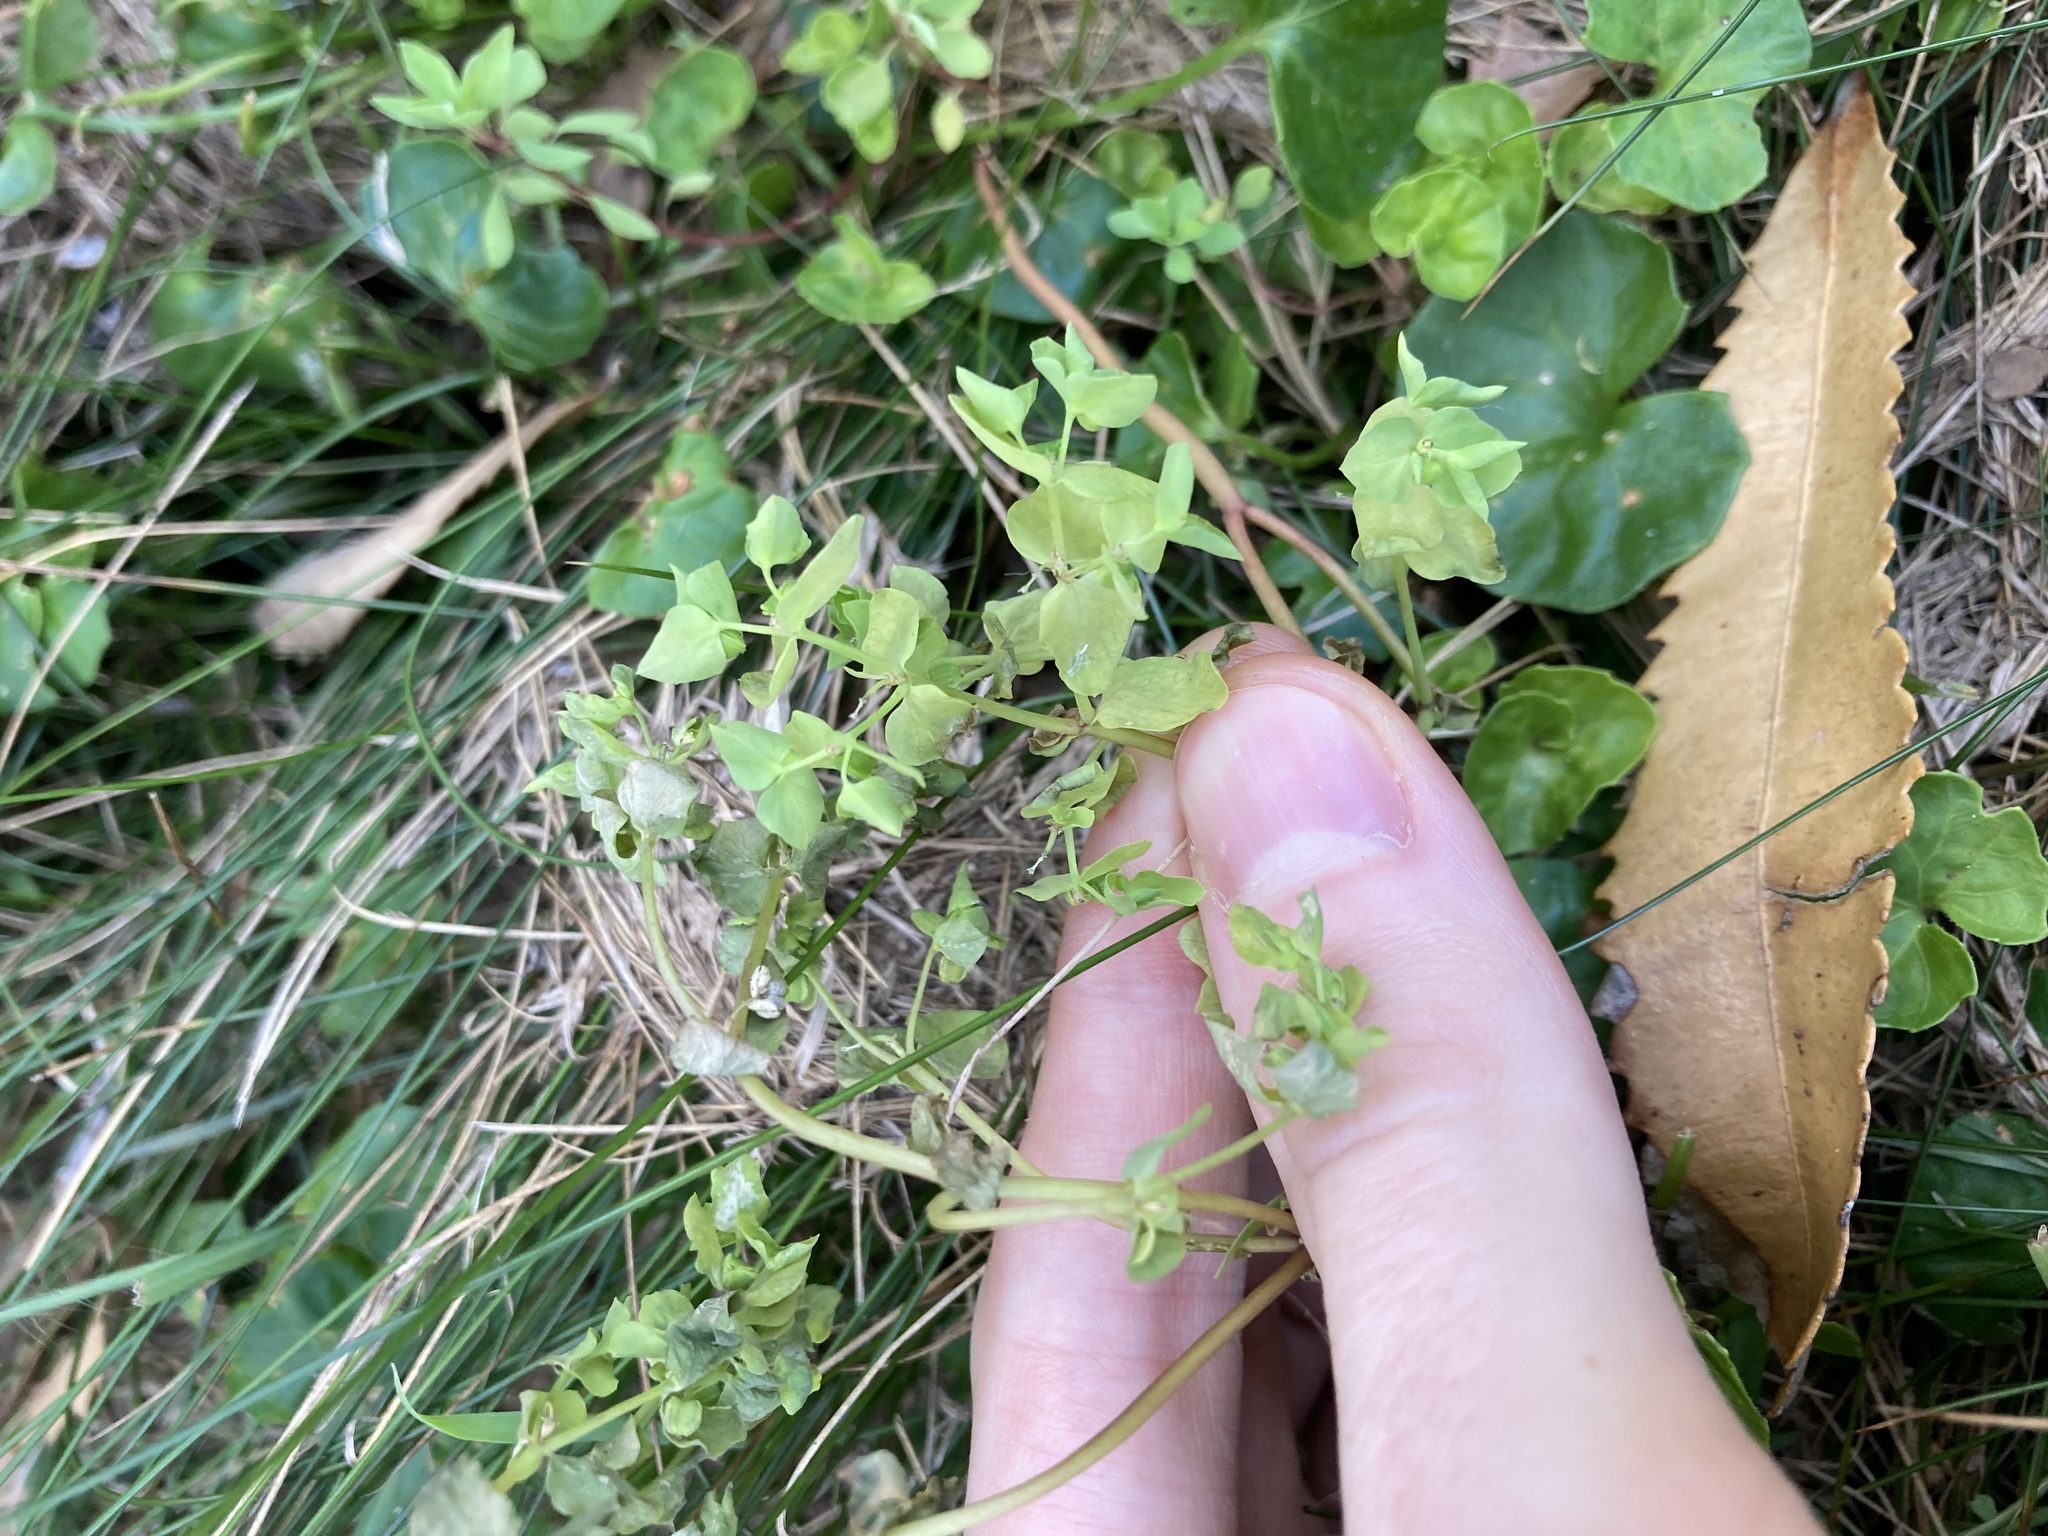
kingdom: Plantae
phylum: Tracheophyta
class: Magnoliopsida
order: Malpighiales
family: Euphorbiaceae
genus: Euphorbia
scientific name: Euphorbia peplus
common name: Petty spurge
